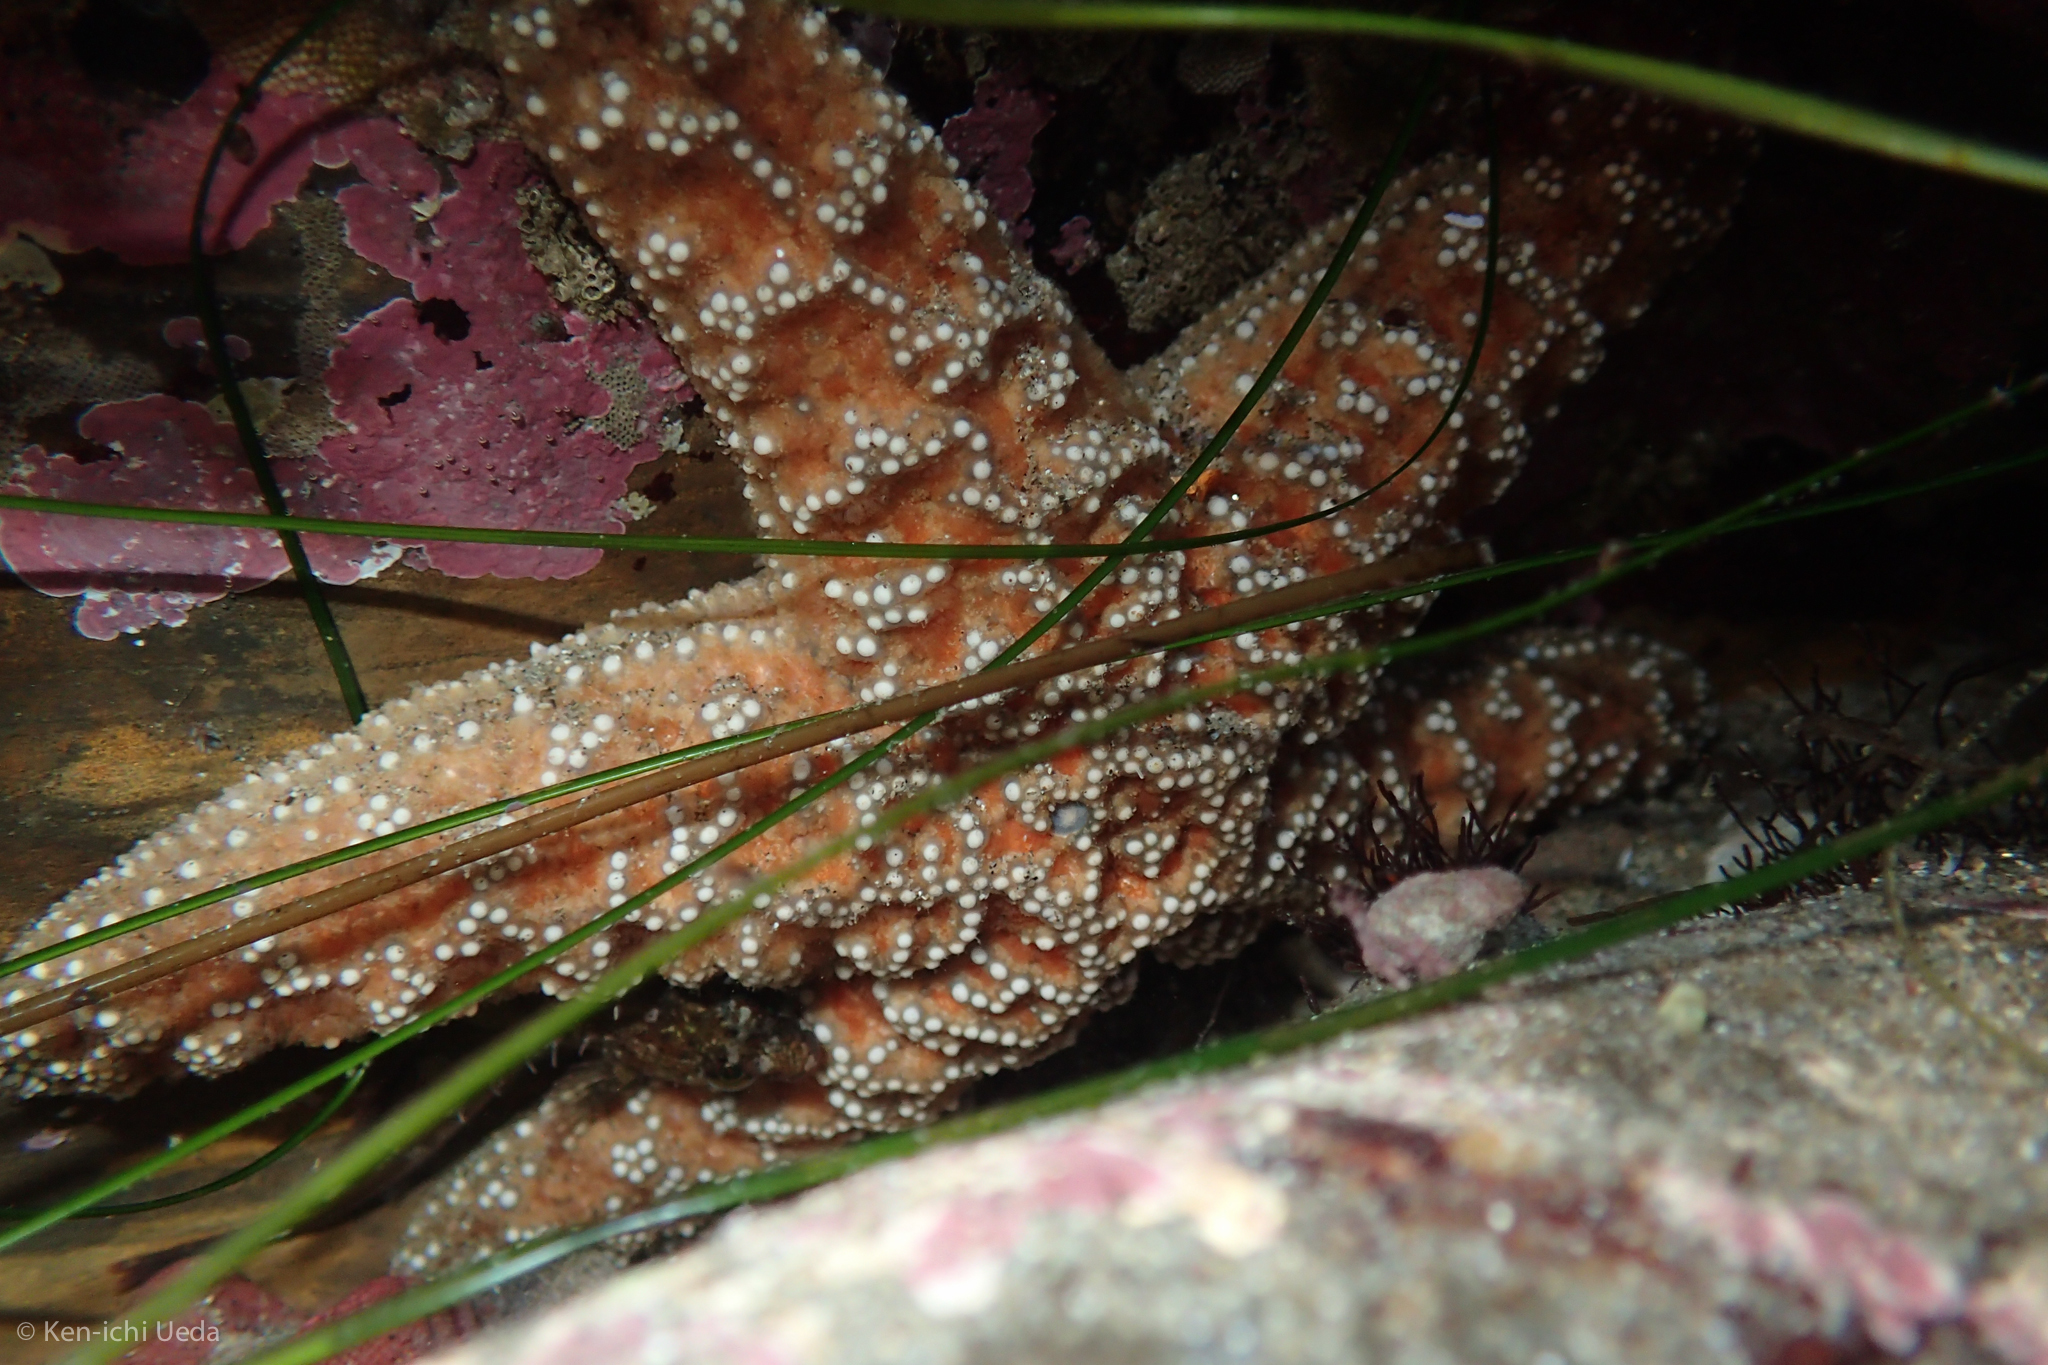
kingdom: Animalia
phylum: Echinodermata
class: Asteroidea
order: Forcipulatida
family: Asteriidae
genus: Pisaster
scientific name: Pisaster ochraceus
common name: Ochre stars
